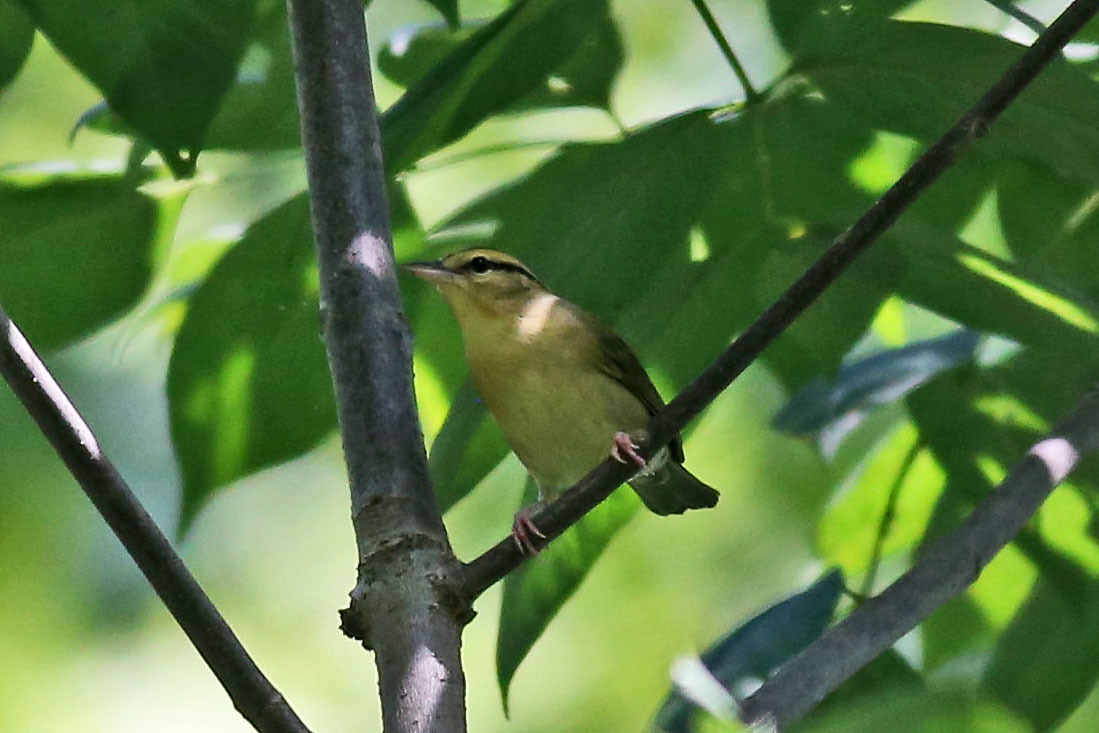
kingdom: Animalia
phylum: Chordata
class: Aves
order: Passeriformes
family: Parulidae
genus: Helmitheros
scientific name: Helmitheros vermivorum
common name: Worm-eating warbler
